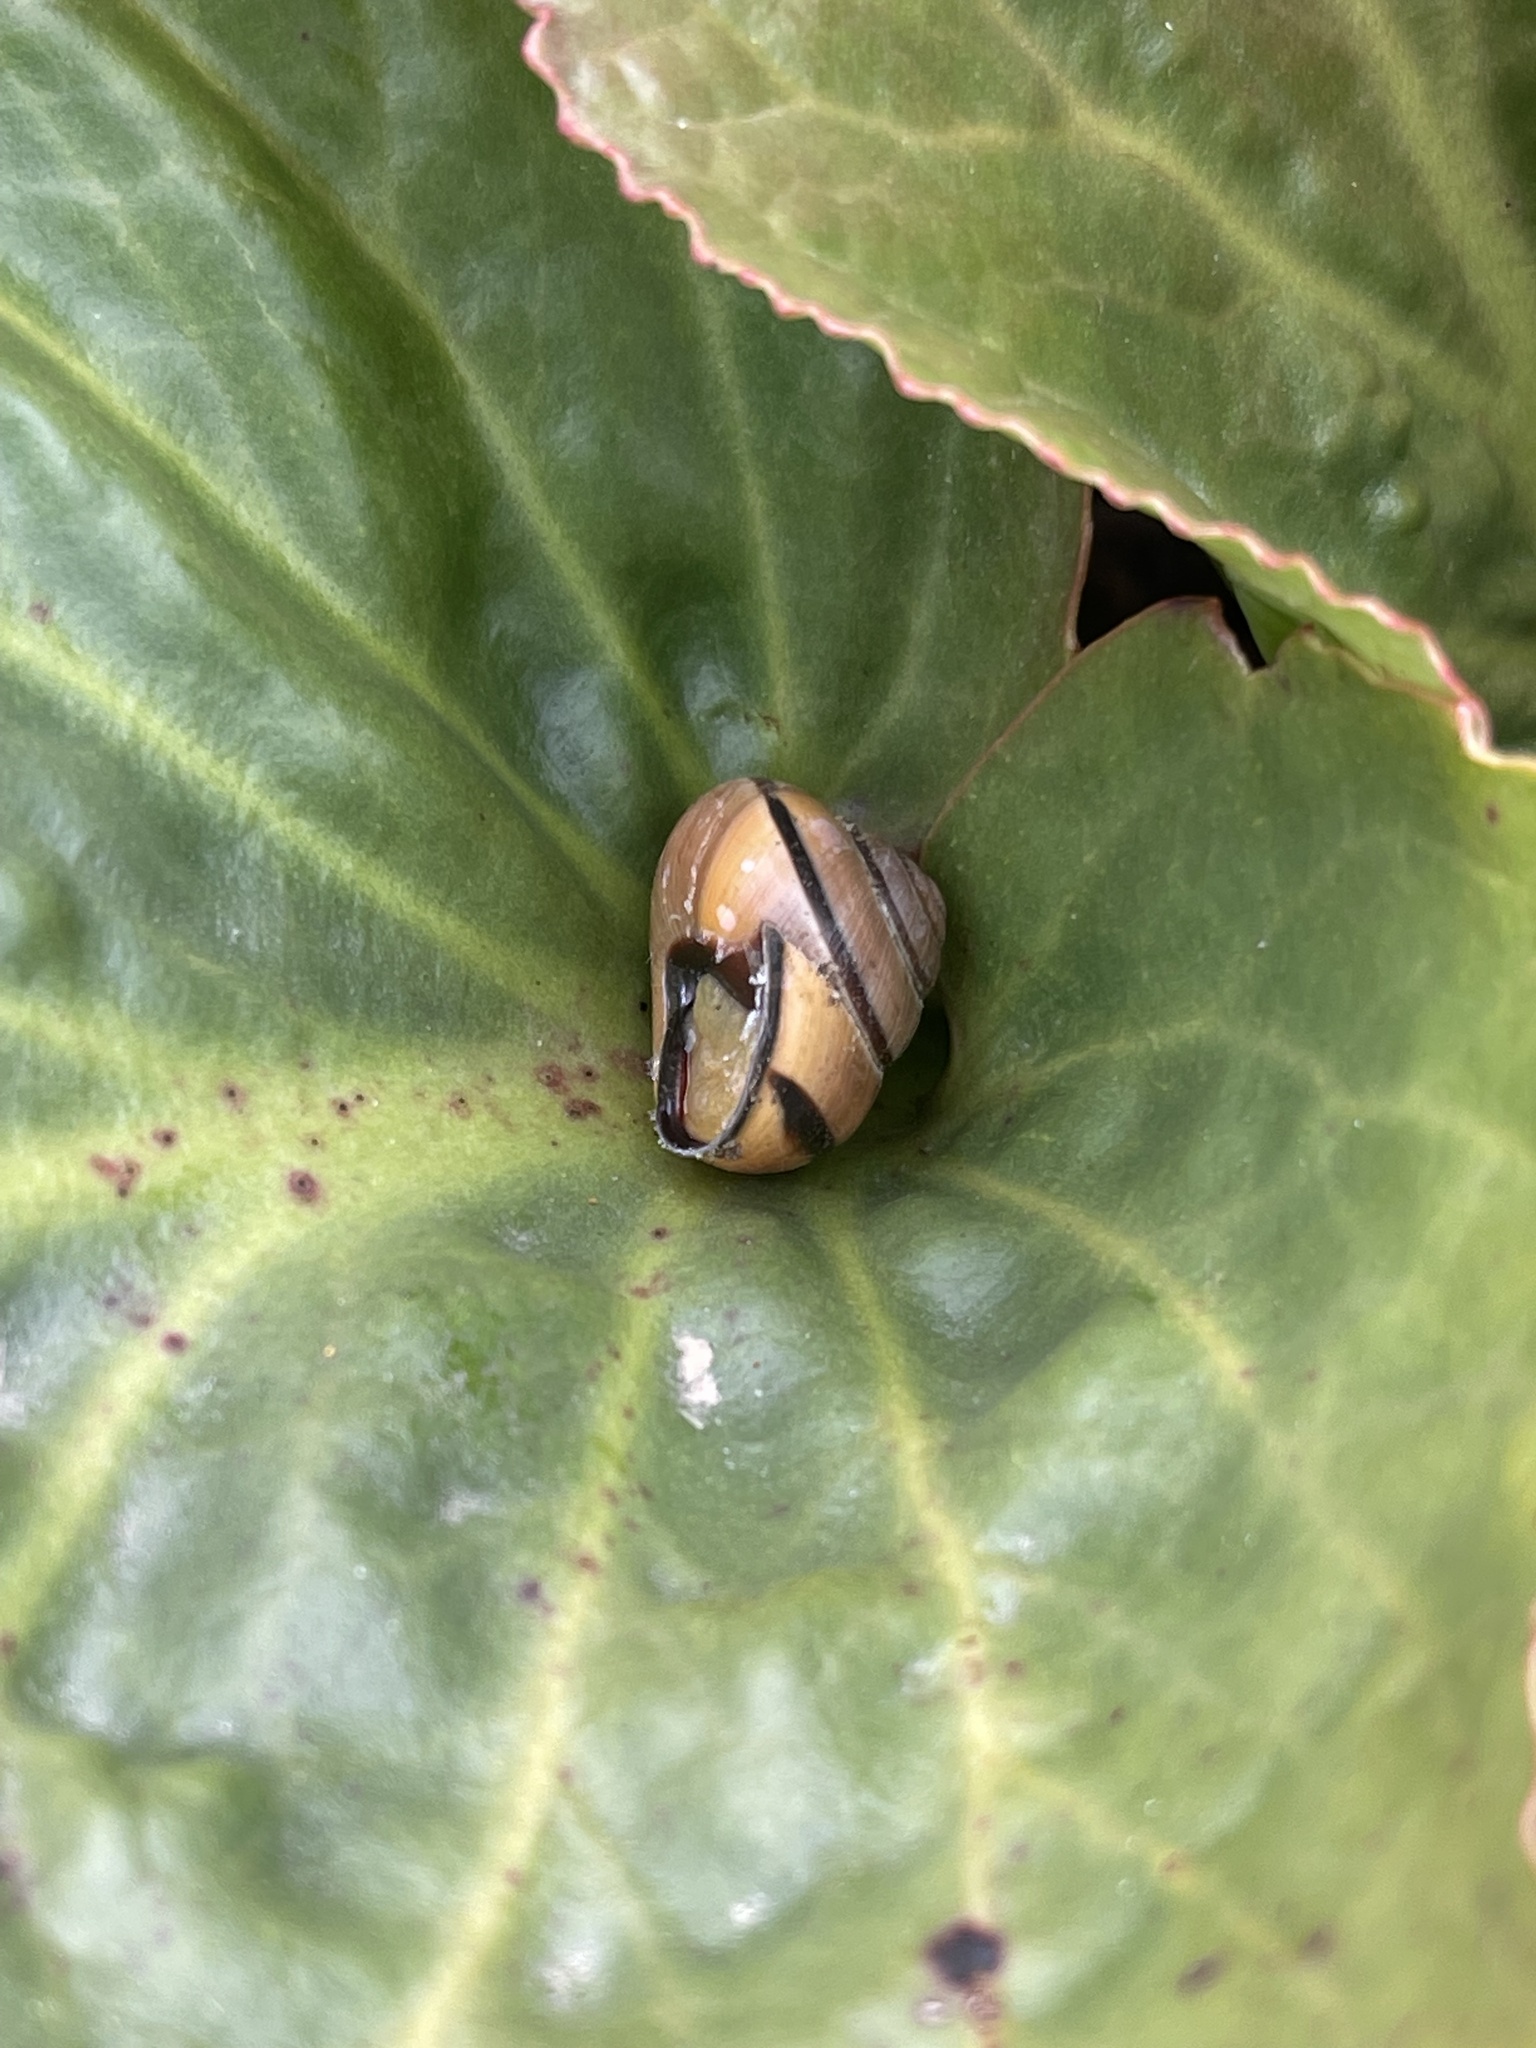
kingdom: Animalia
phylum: Mollusca
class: Gastropoda
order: Stylommatophora
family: Helicidae
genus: Cepaea
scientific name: Cepaea nemoralis
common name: Grovesnail
